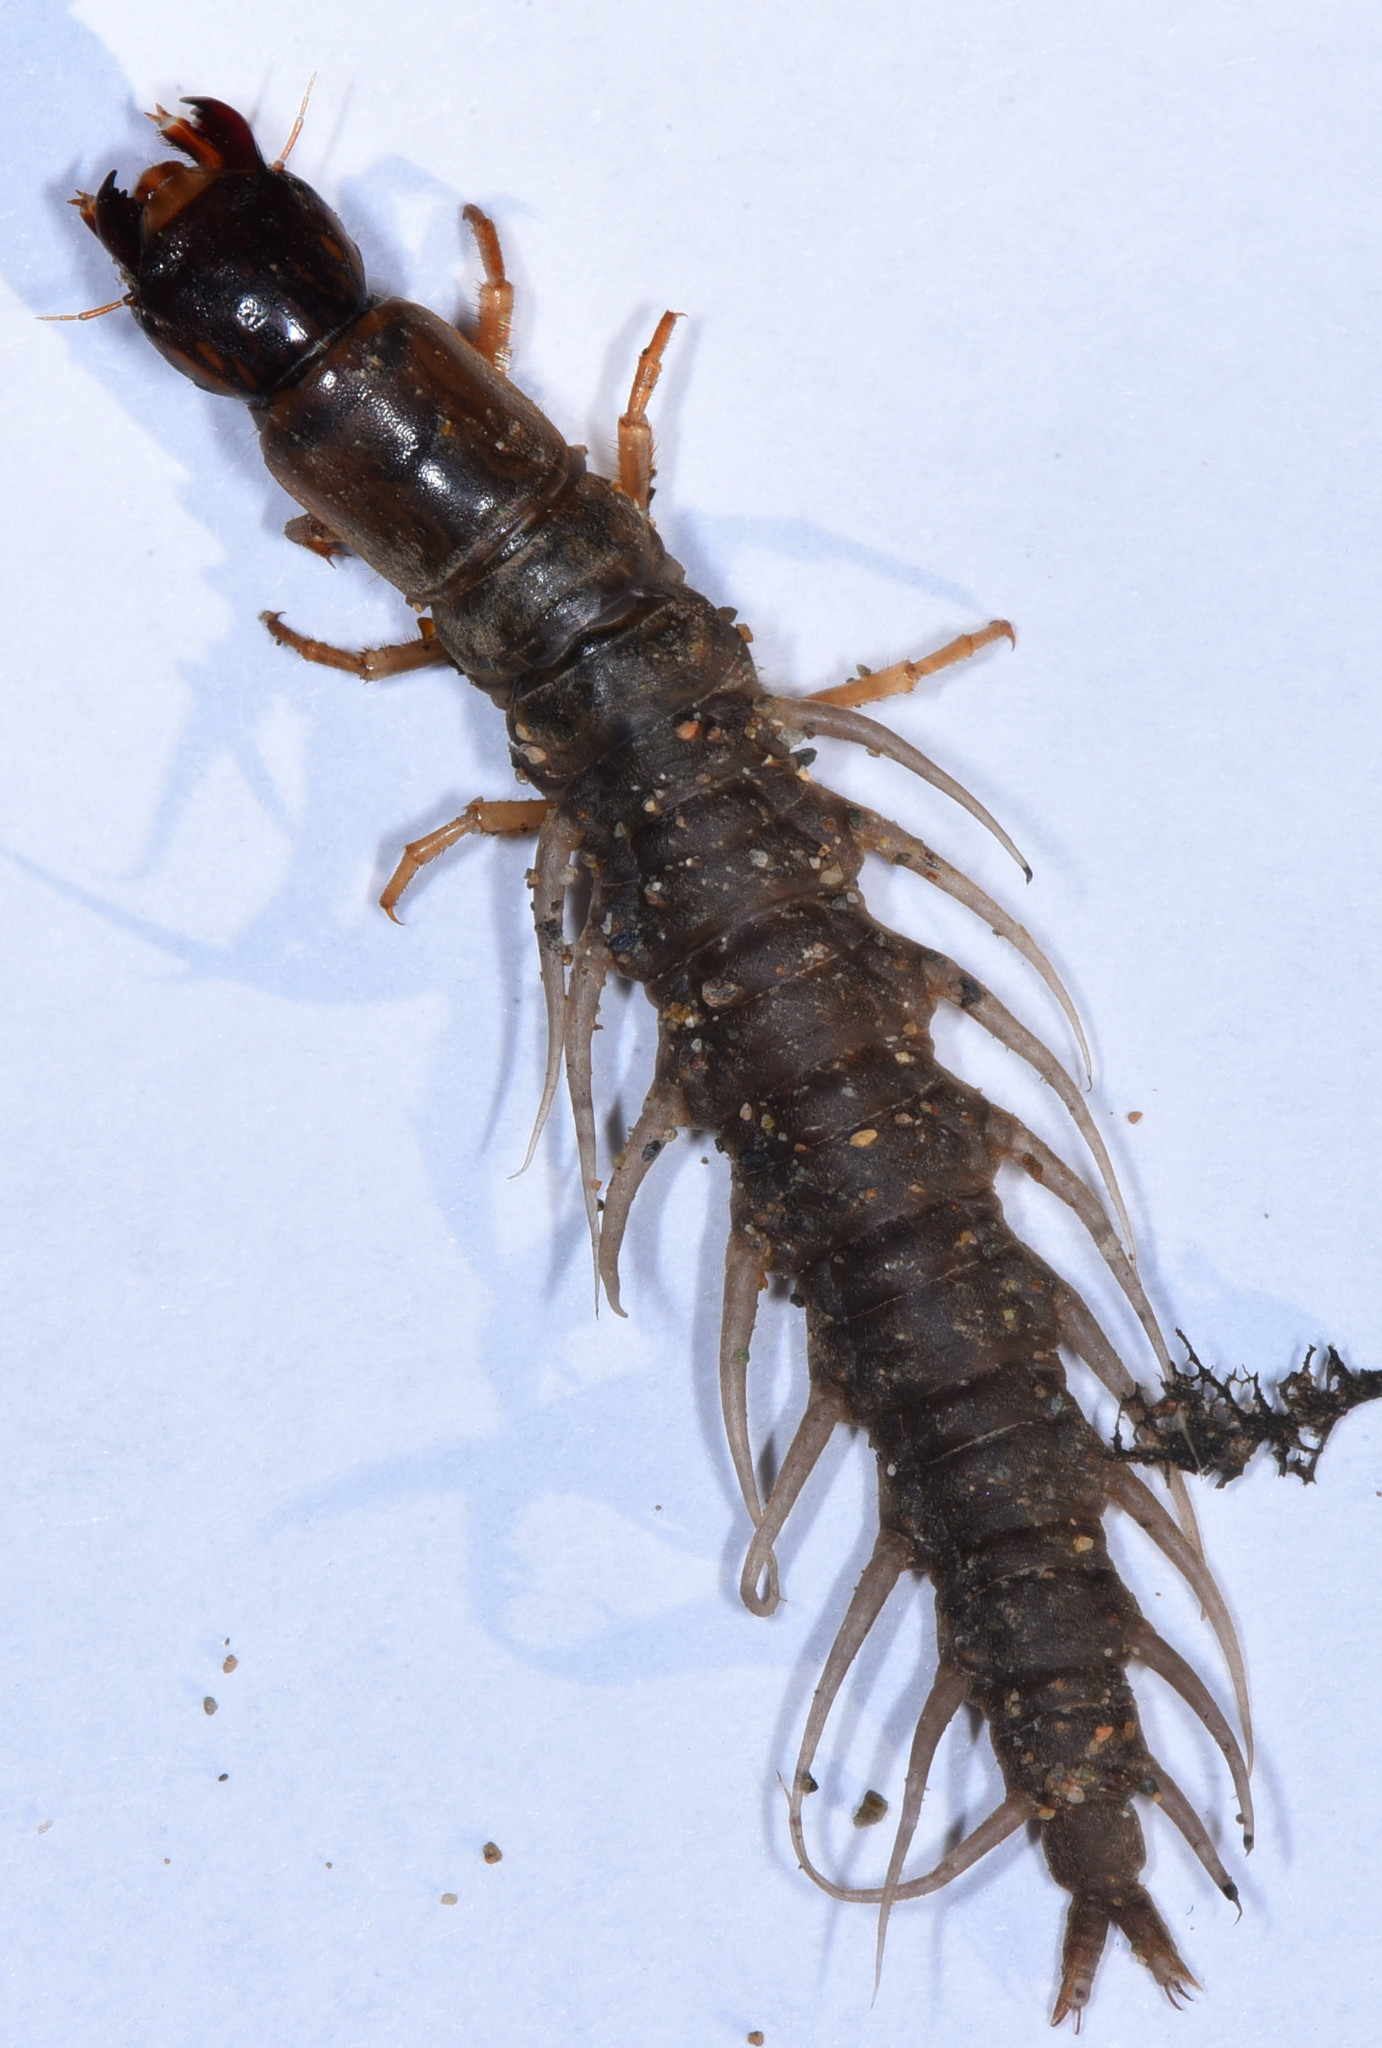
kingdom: Animalia
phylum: Arthropoda
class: Insecta
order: Megaloptera
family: Corydalidae
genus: Neohermes
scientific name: Neohermes filicornis
